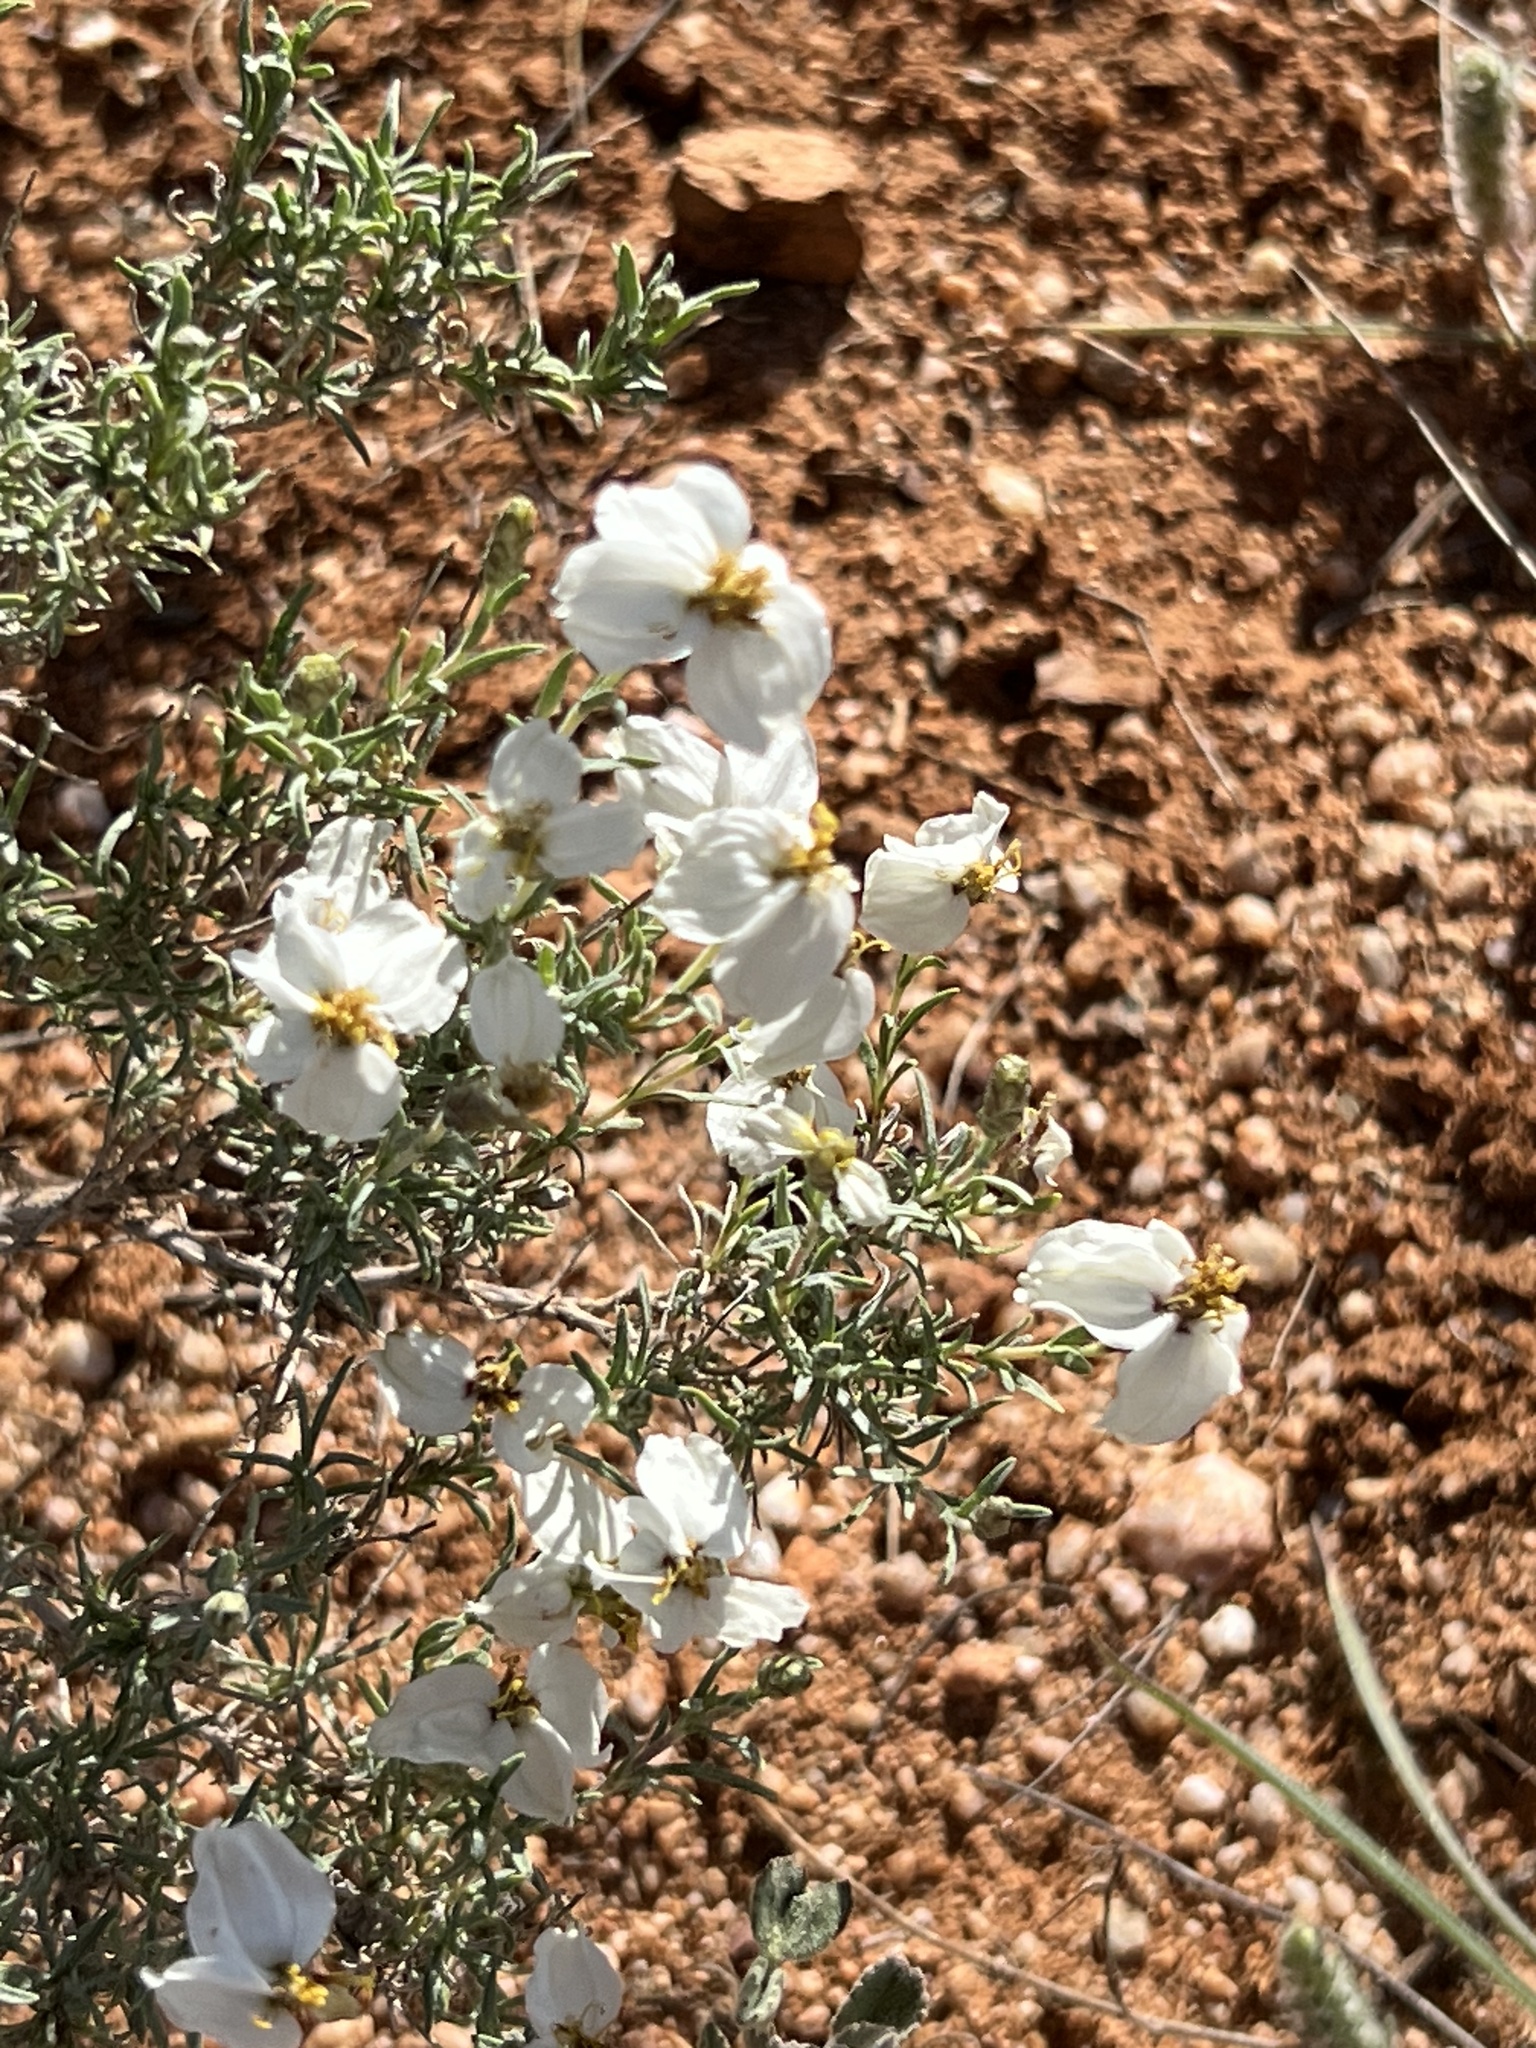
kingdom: Plantae
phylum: Tracheophyta
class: Magnoliopsida
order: Asterales
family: Asteraceae
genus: Zinnia
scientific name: Zinnia acerosa
